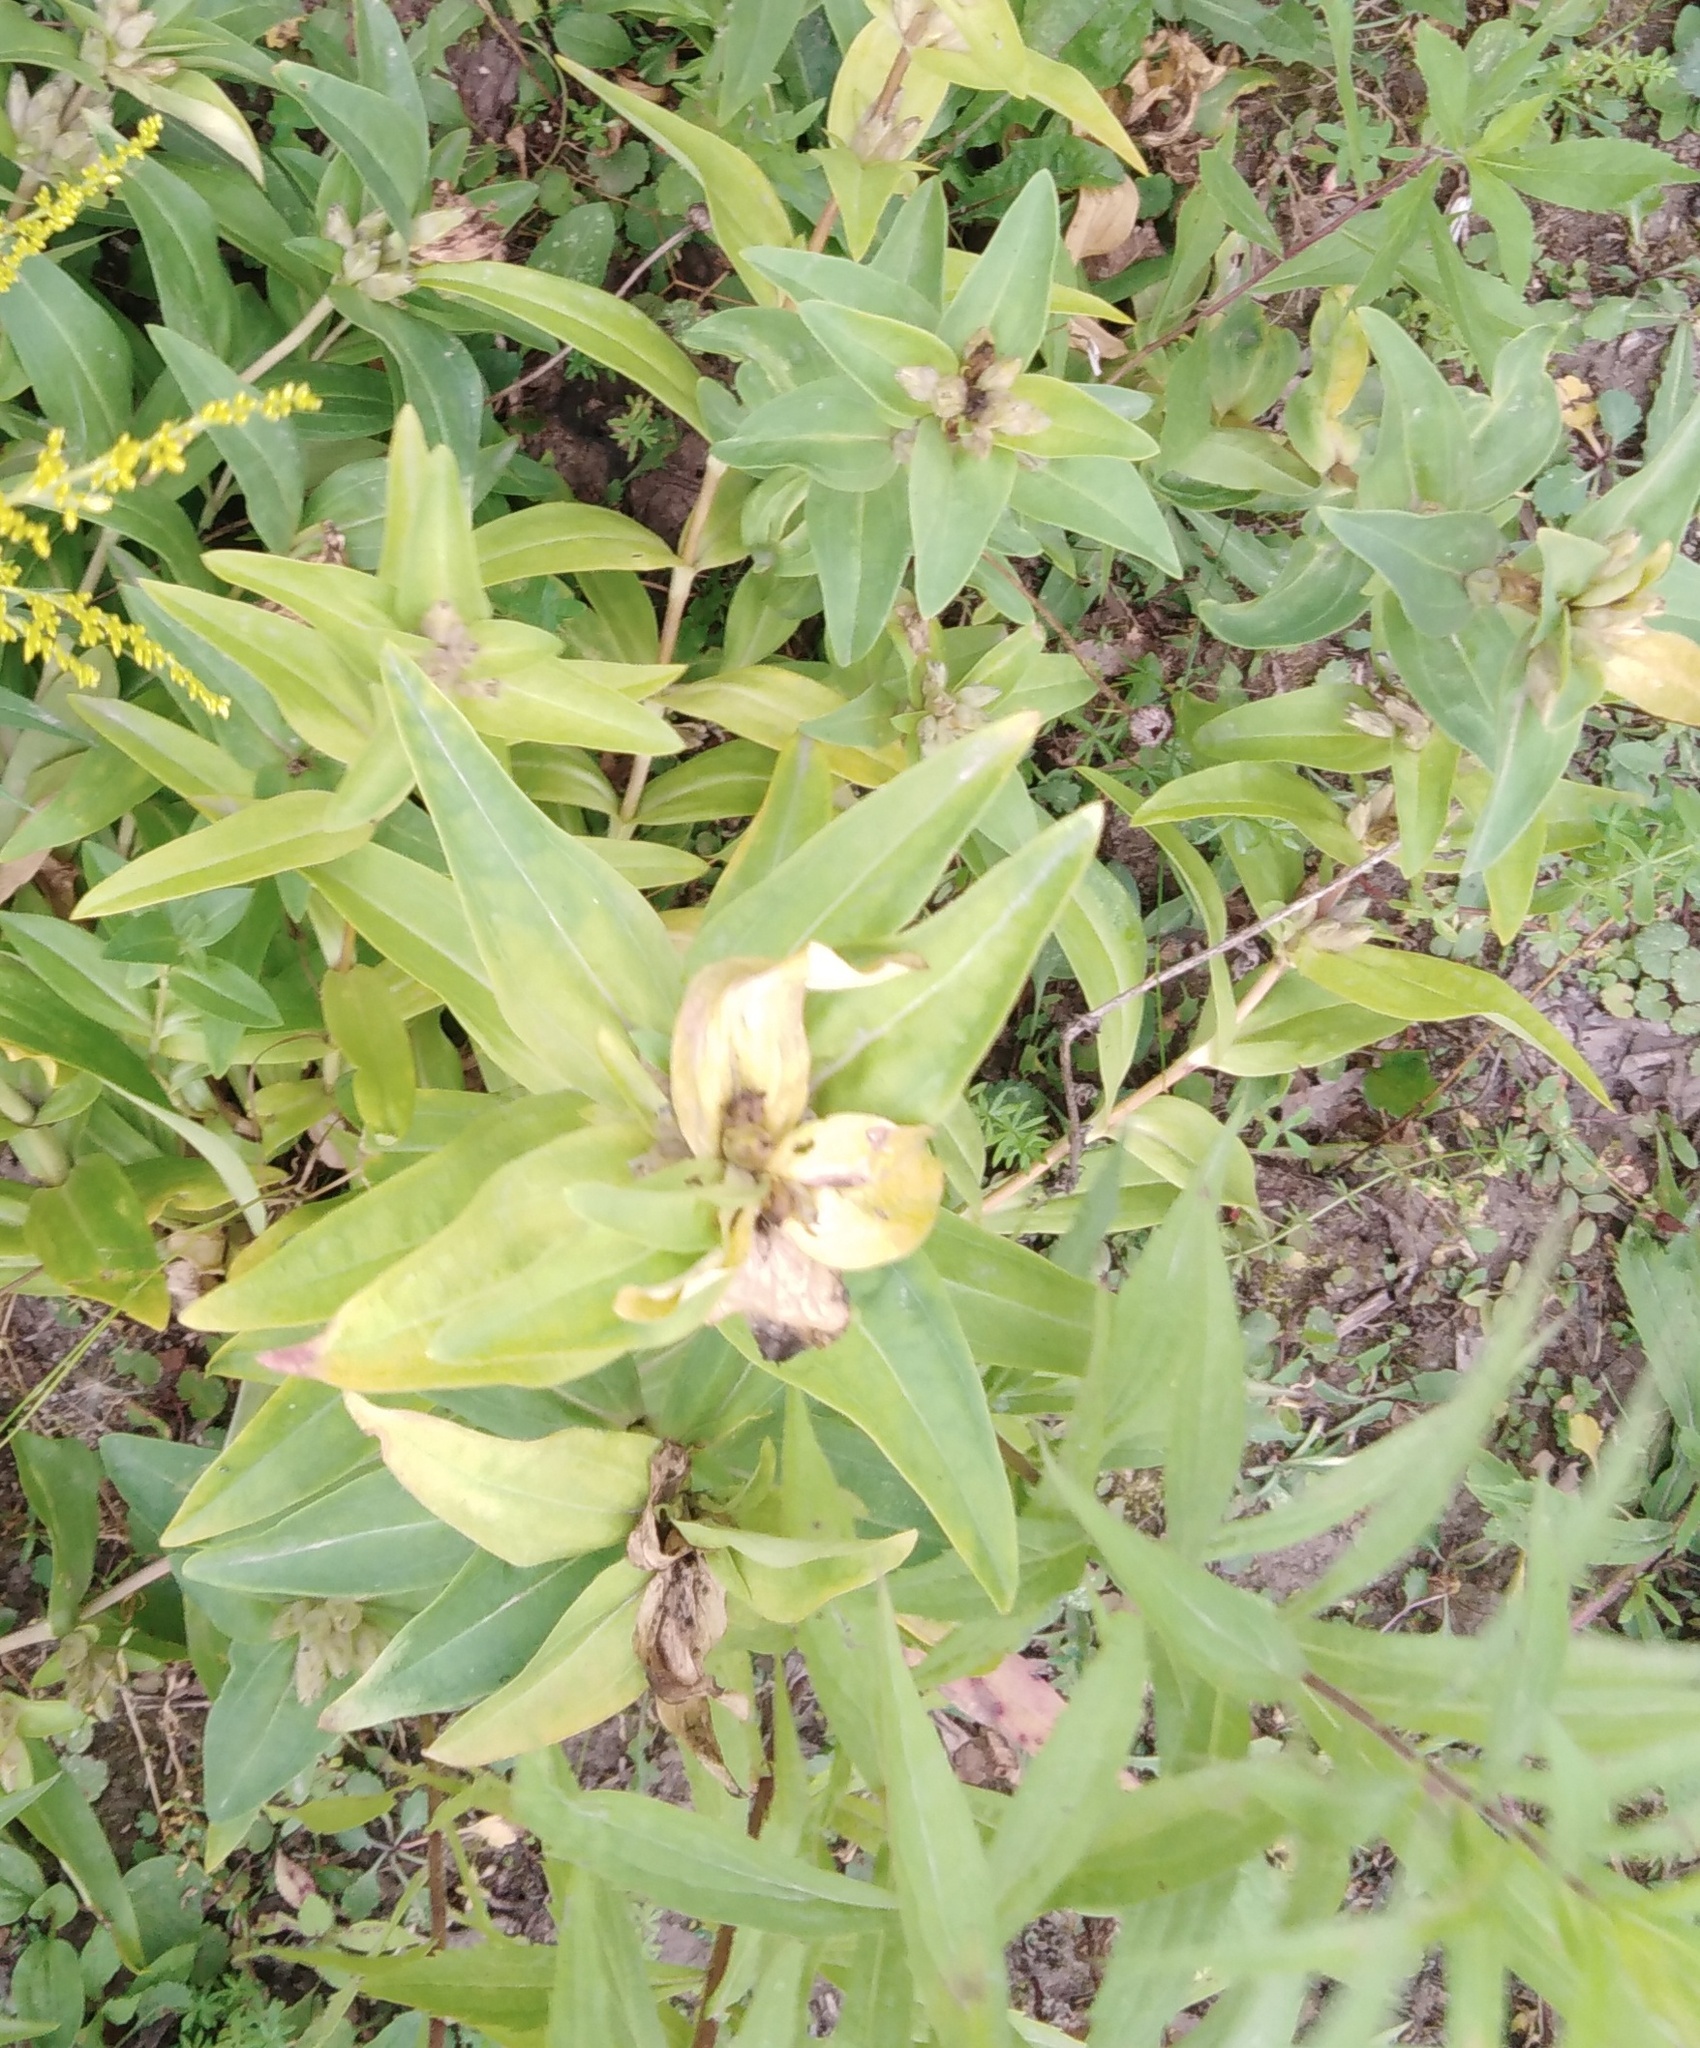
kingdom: Plantae
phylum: Tracheophyta
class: Magnoliopsida
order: Gentianales
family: Gentianaceae
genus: Gentiana
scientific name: Gentiana cruciata
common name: Cross gentian
